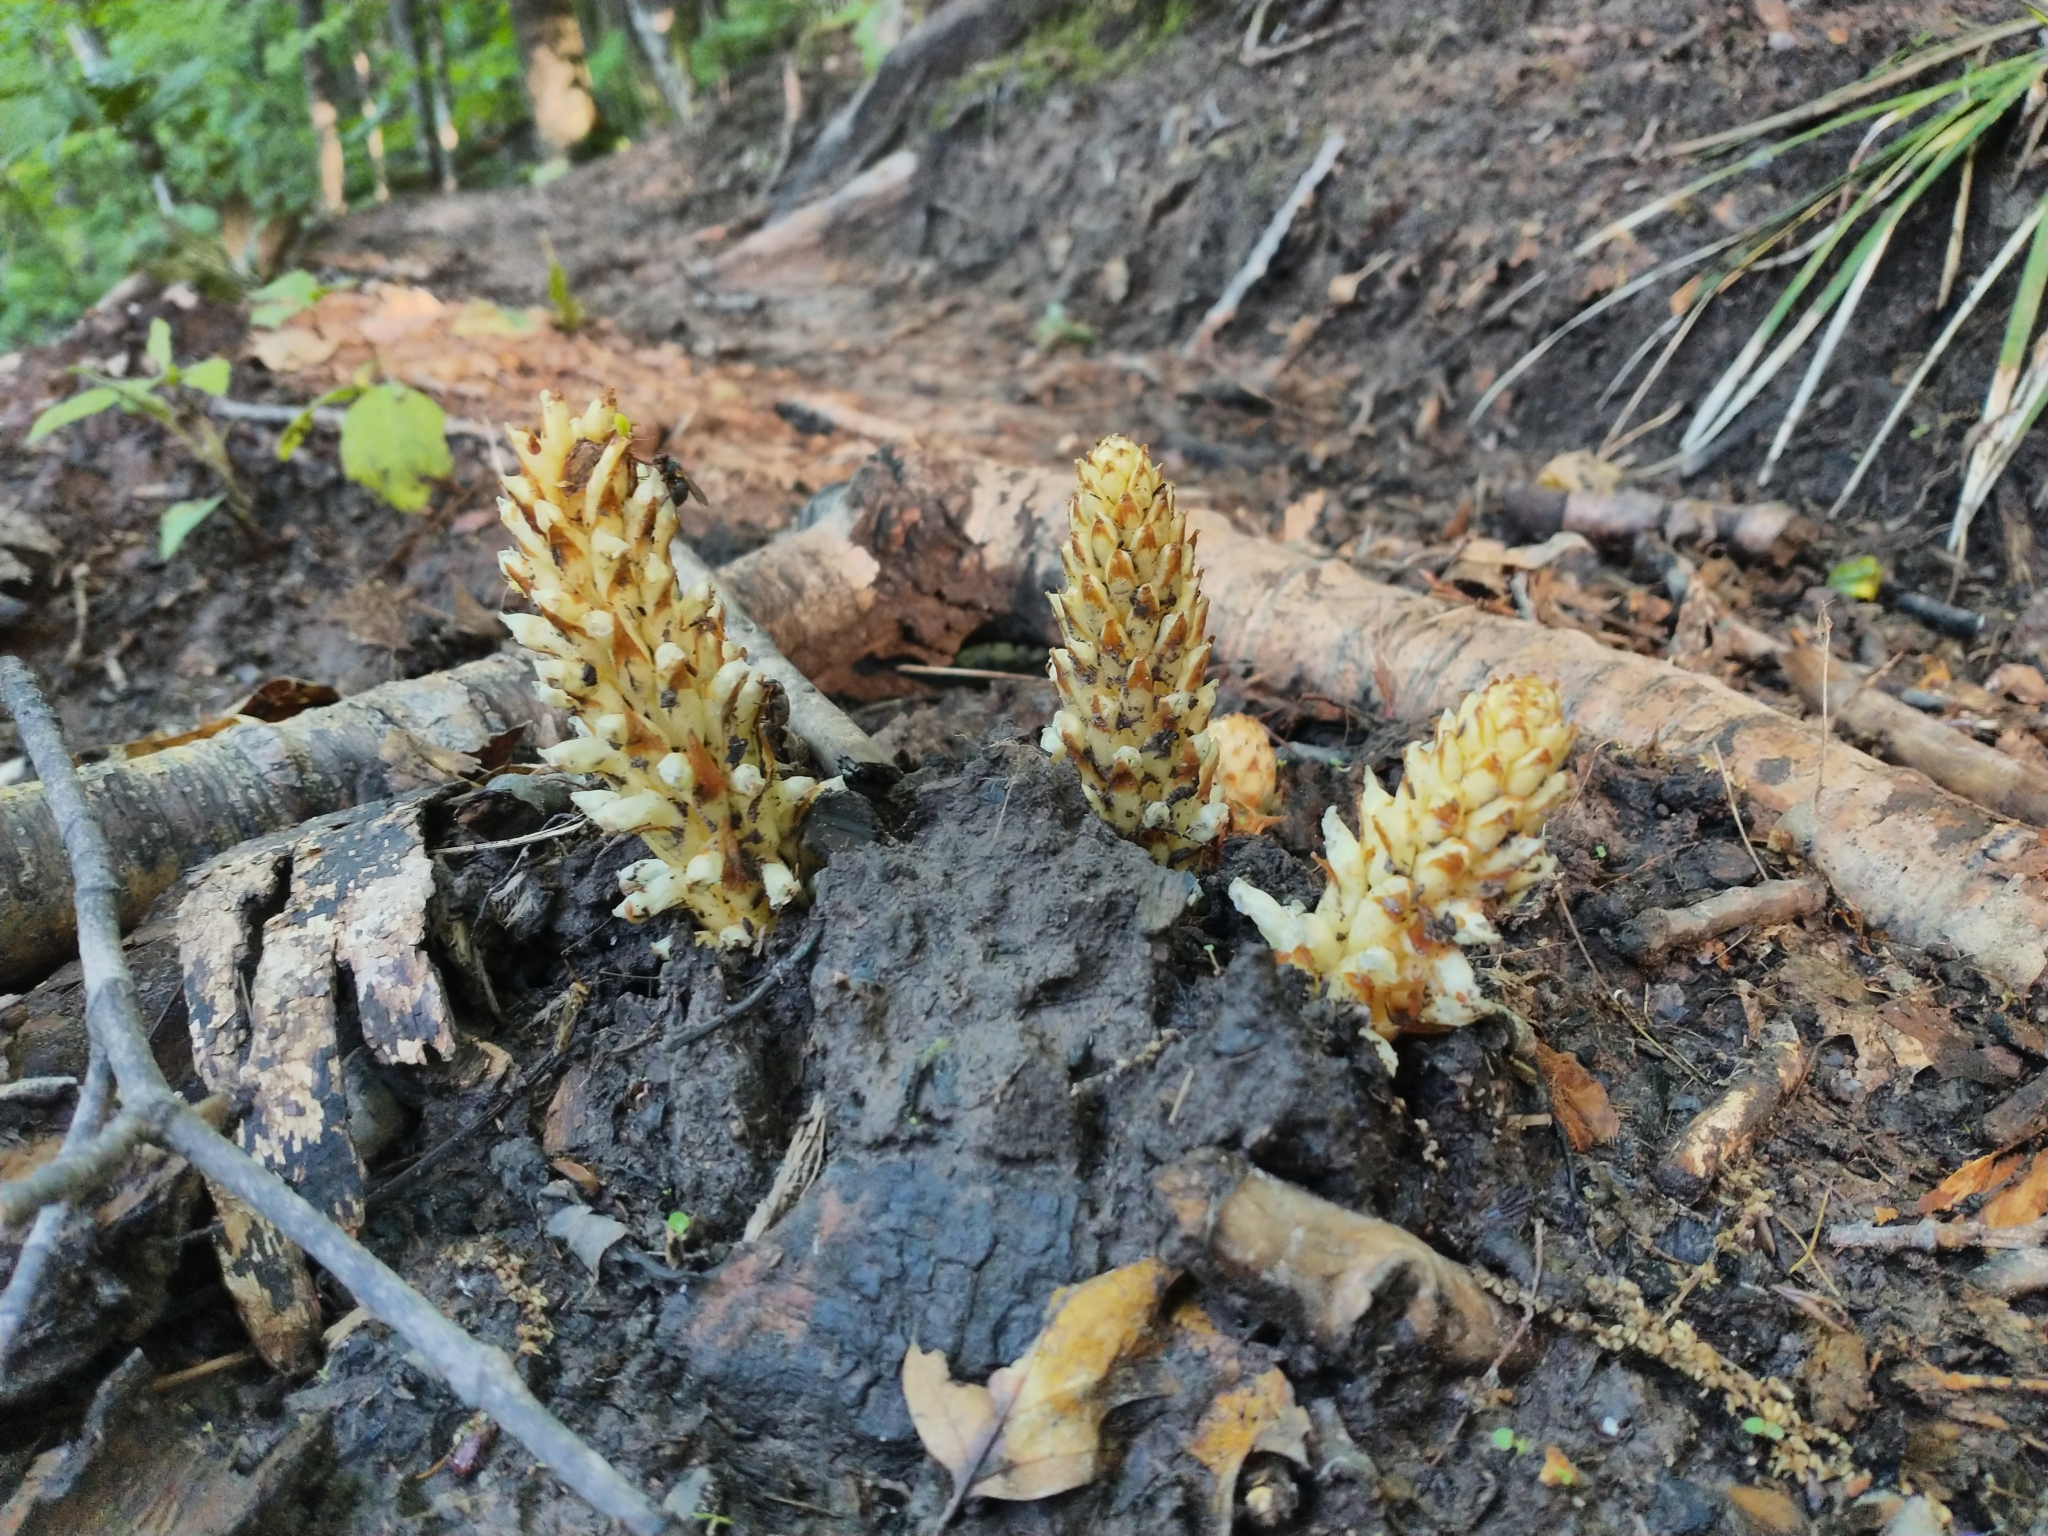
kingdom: Plantae
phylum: Tracheophyta
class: Magnoliopsida
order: Lamiales
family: Orobanchaceae
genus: Conopholis
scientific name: Conopholis americana
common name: American cancer-root
